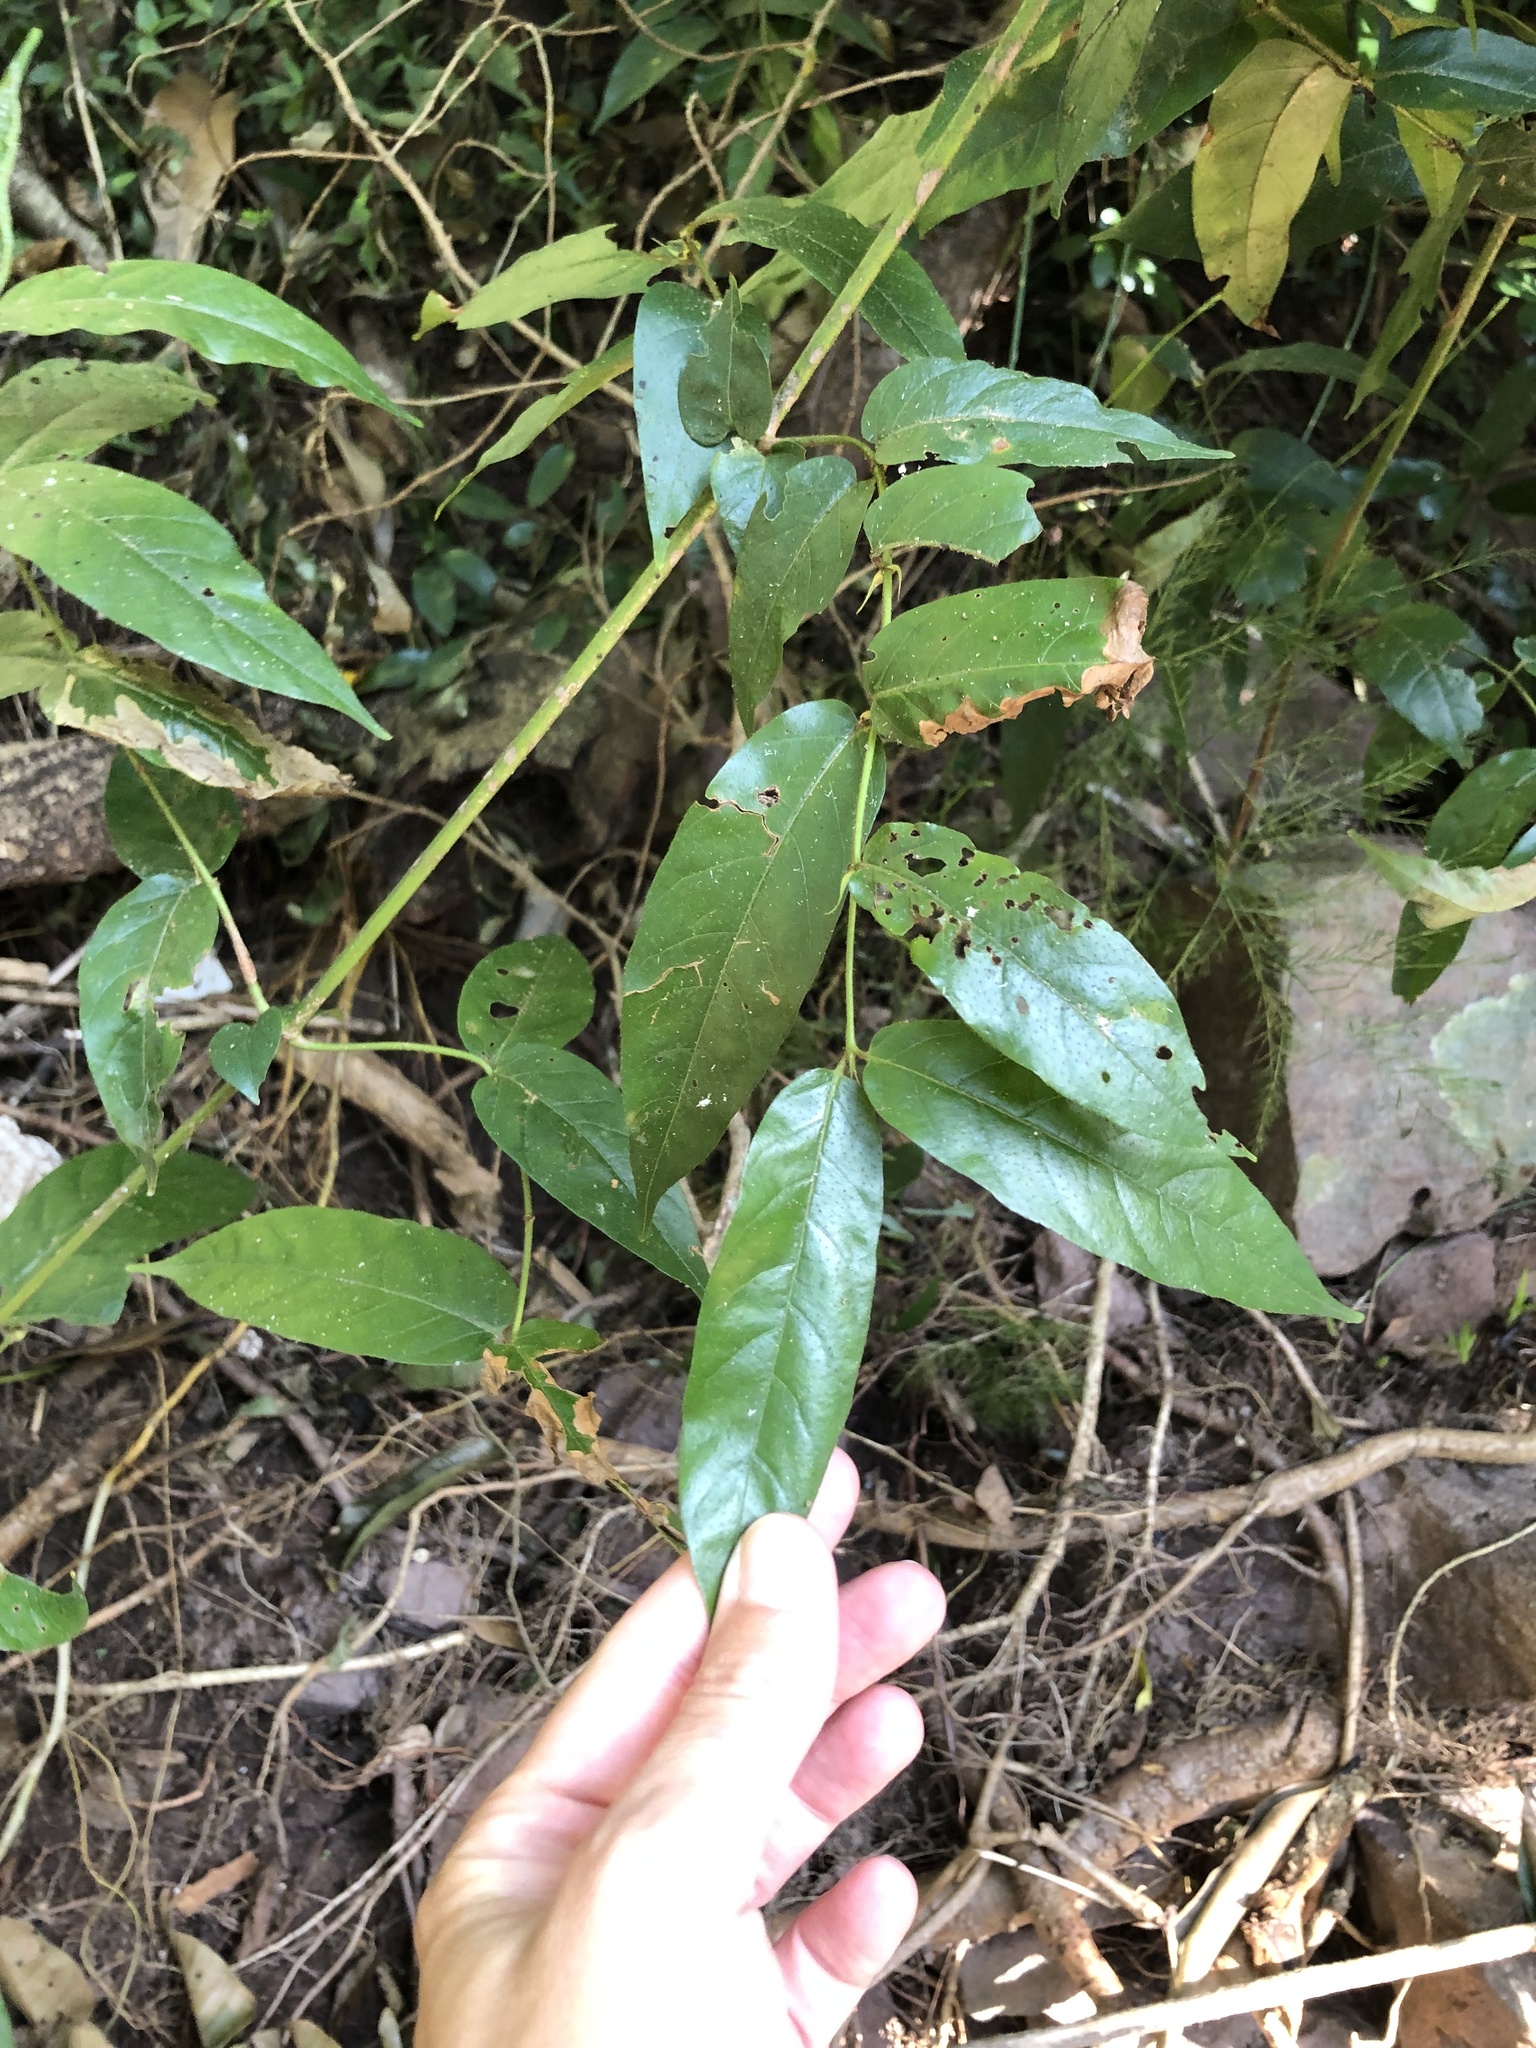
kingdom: Plantae
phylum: Tracheophyta
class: Magnoliopsida
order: Gentianales
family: Rubiaceae
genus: Keetia
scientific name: Keetia gueinzii
